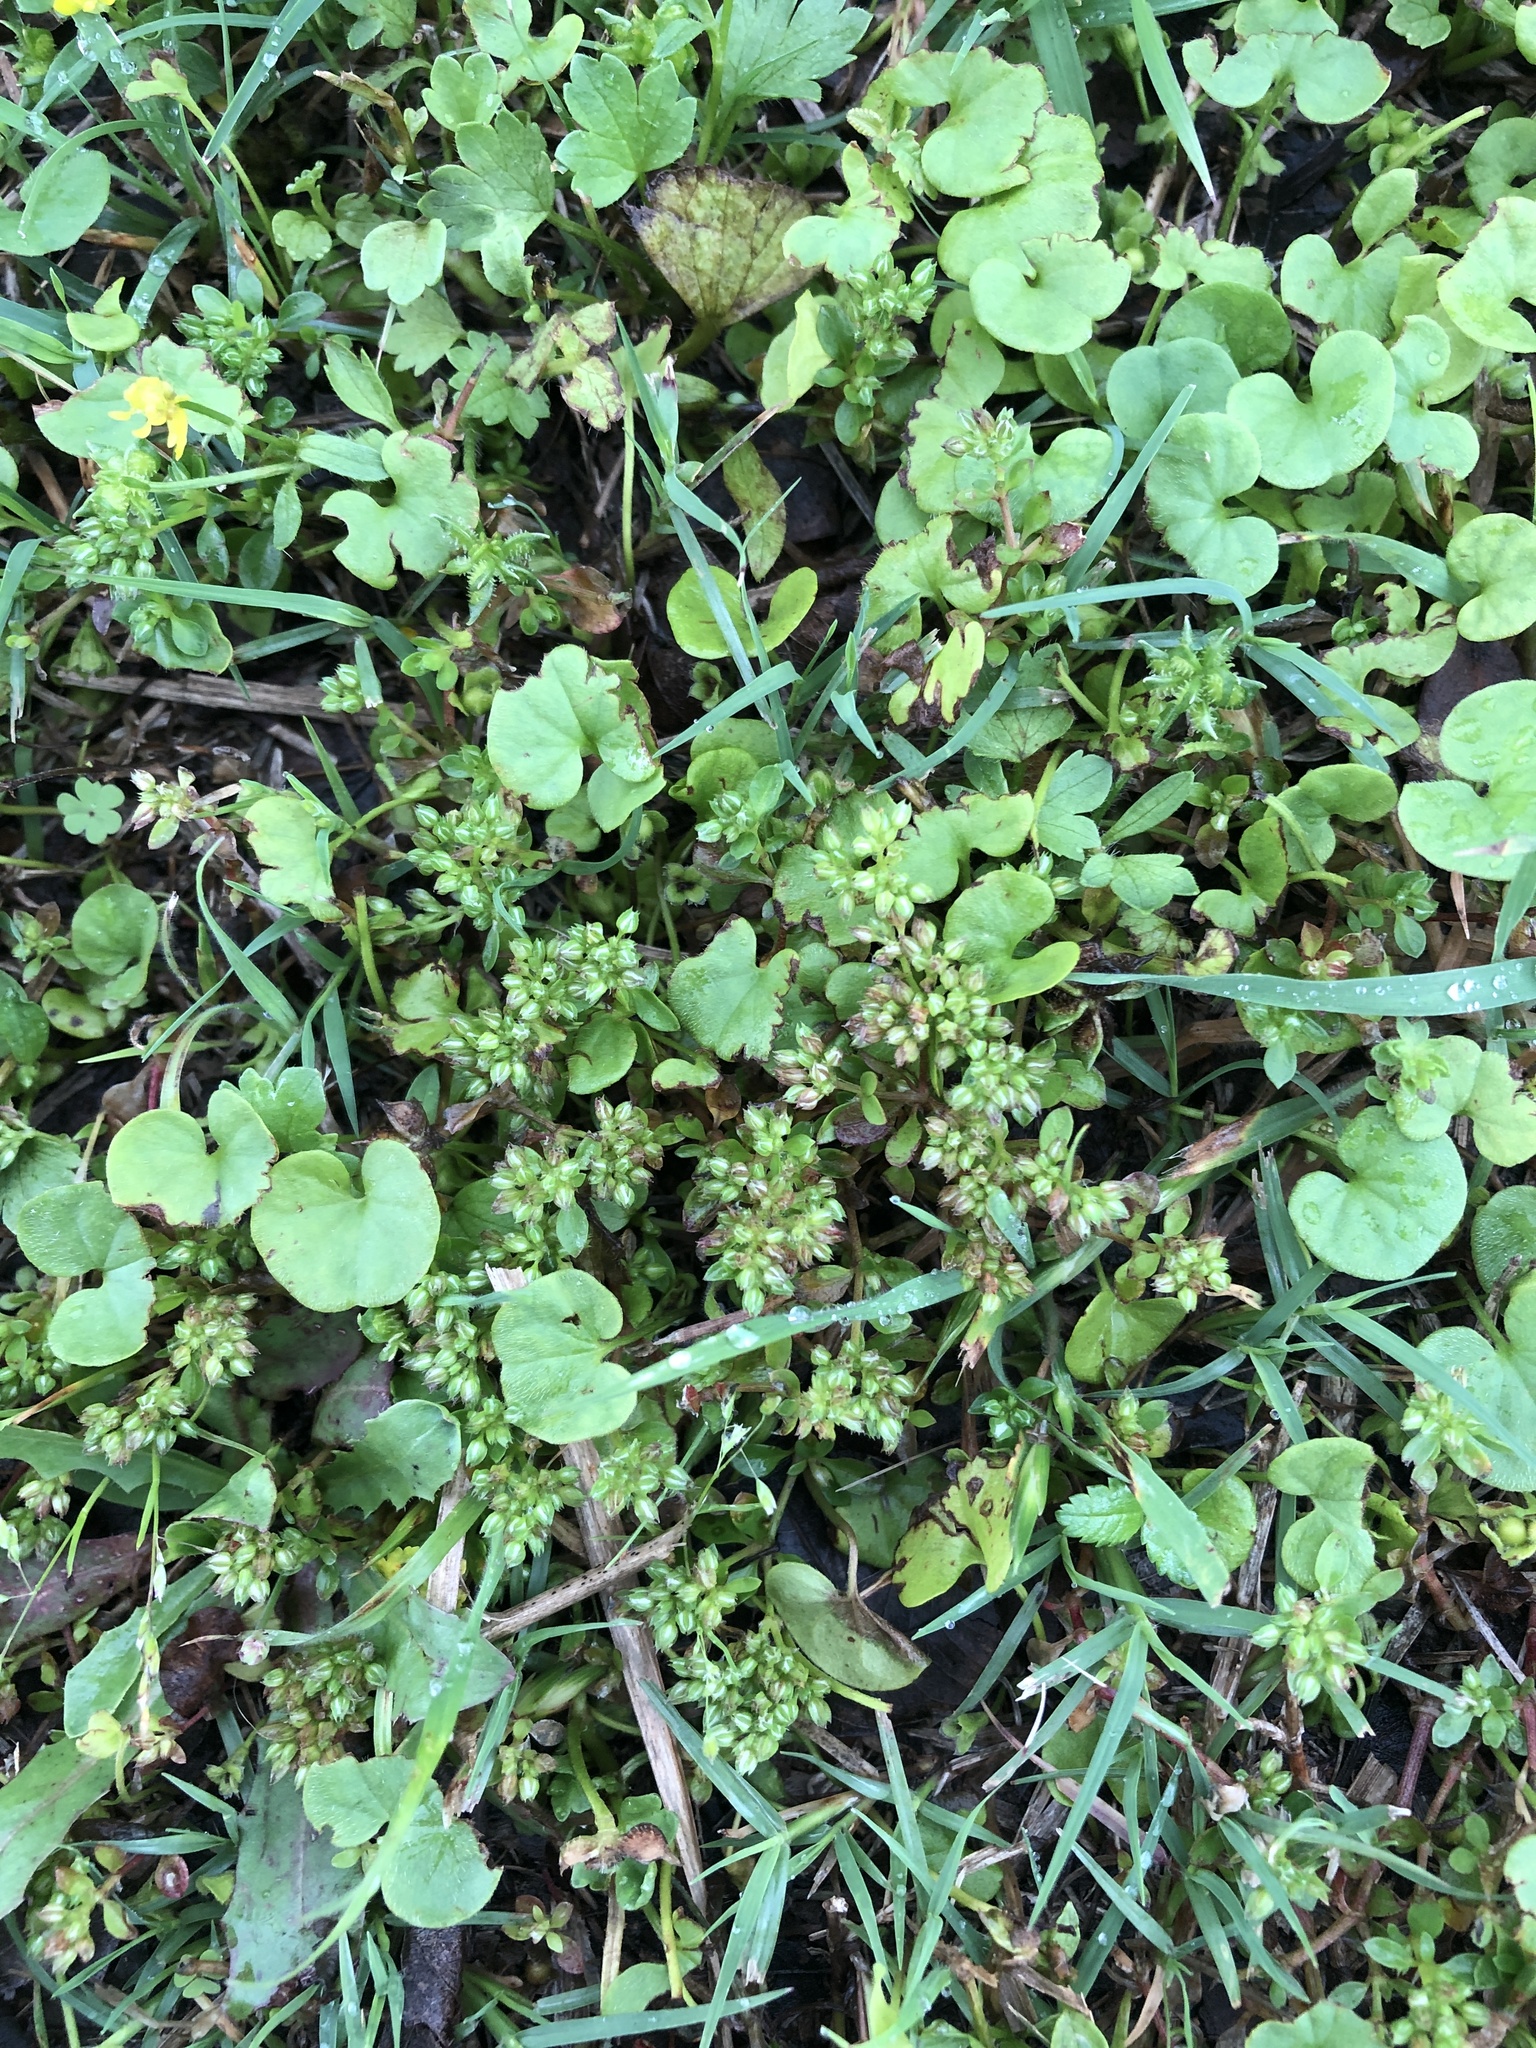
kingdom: Plantae
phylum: Tracheophyta
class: Magnoliopsida
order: Caryophyllales
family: Caryophyllaceae
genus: Polycarpon
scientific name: Polycarpon tetraphyllum
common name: Four-leaved all-seed
